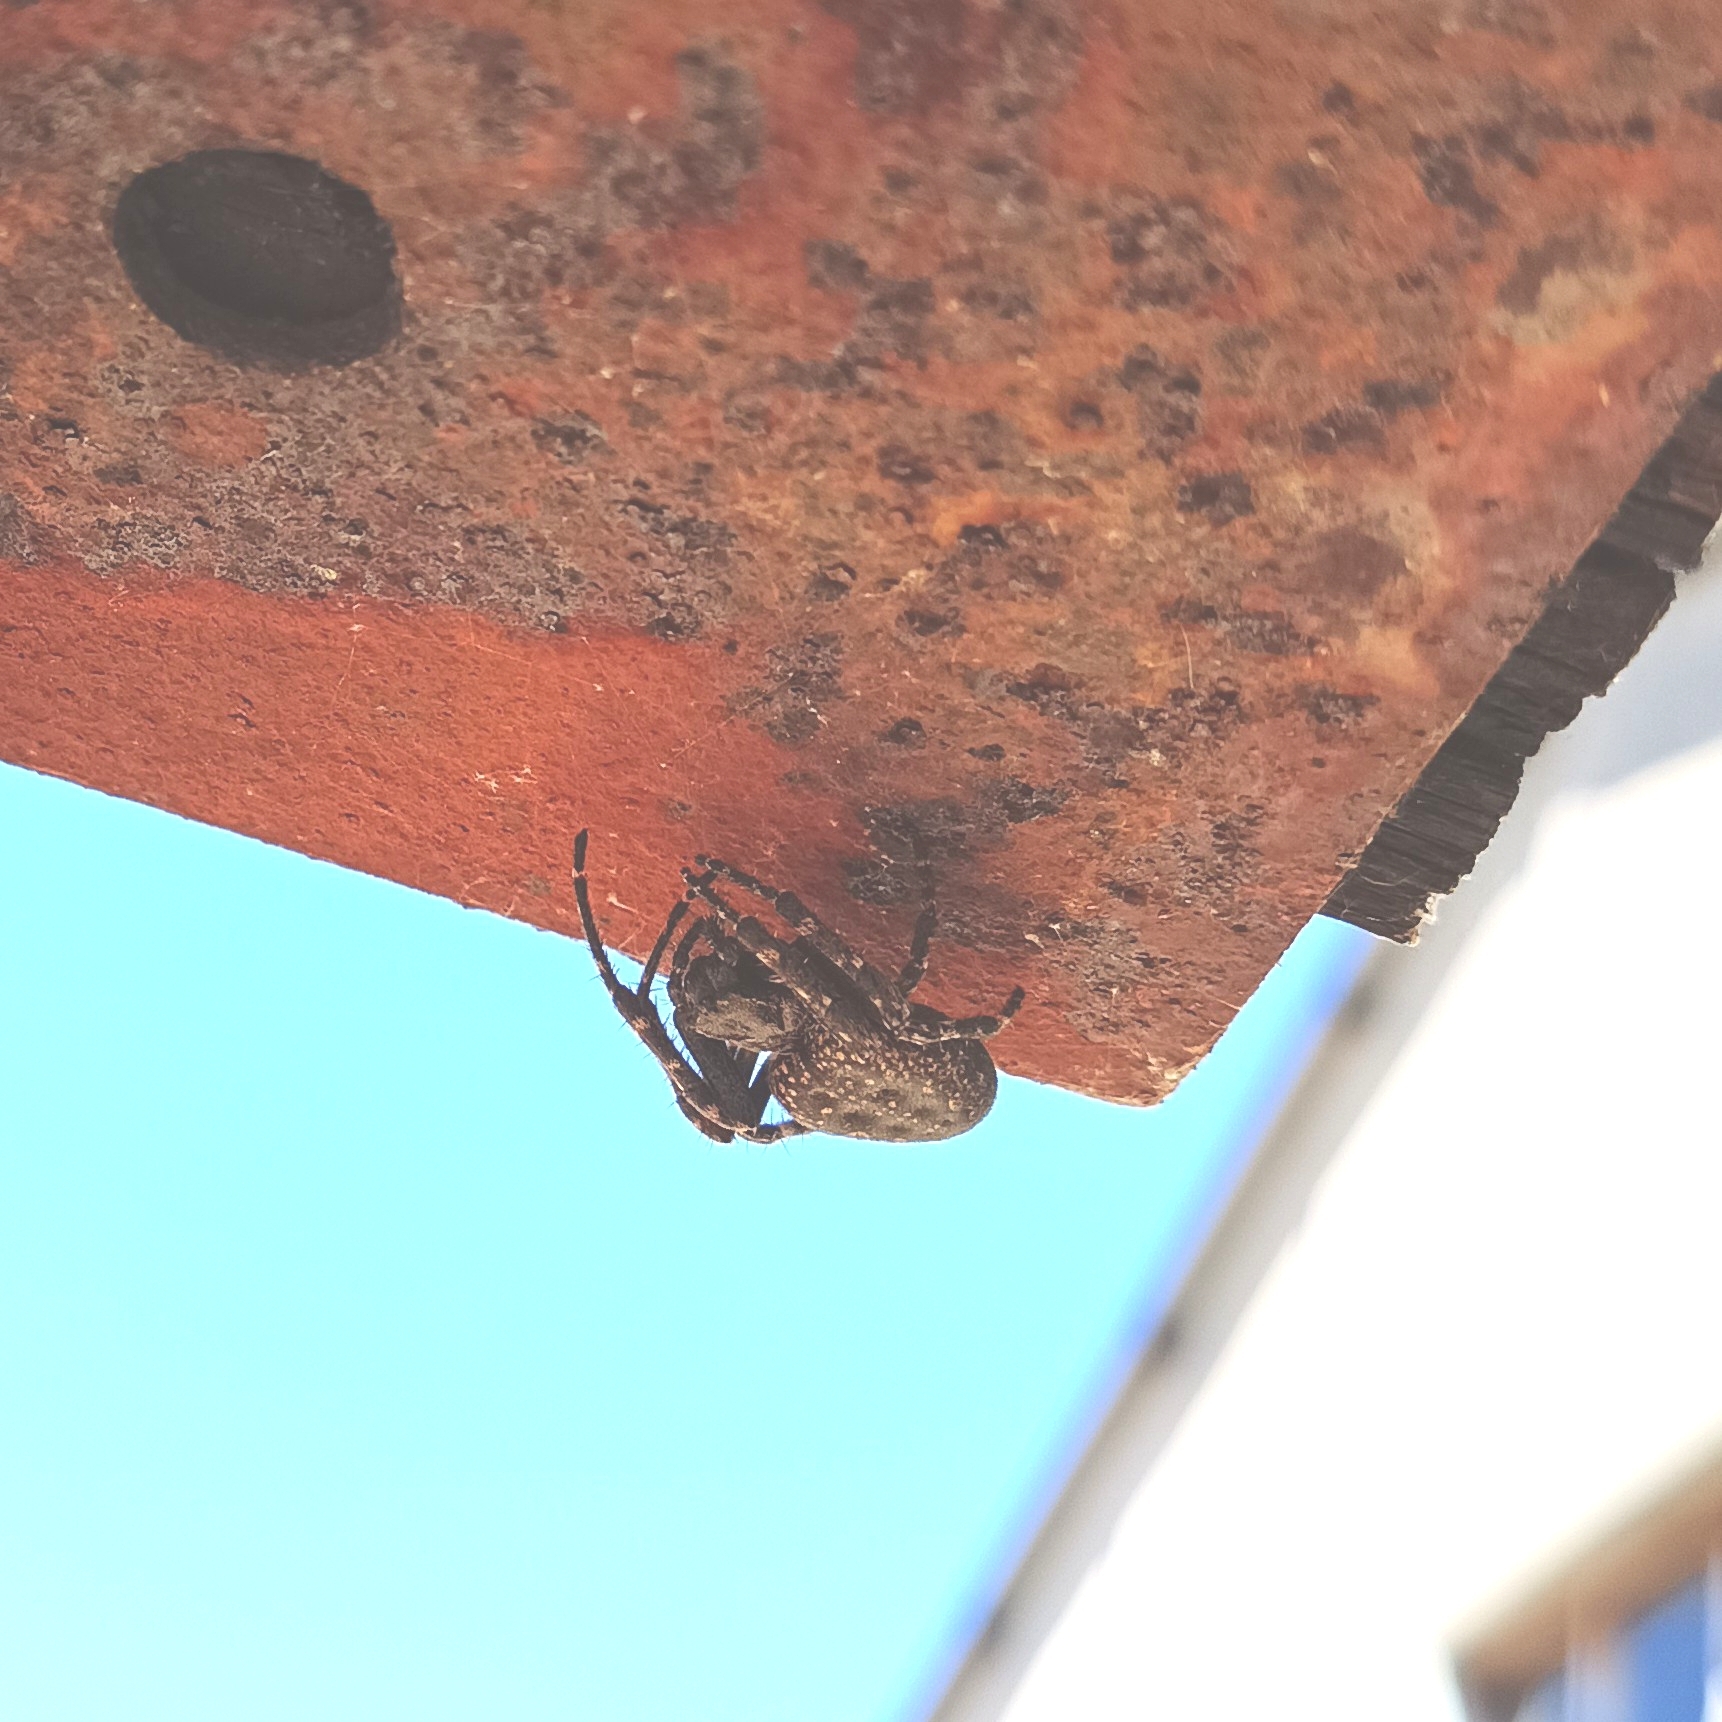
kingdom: Animalia
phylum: Arthropoda
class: Arachnida
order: Araneae
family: Araneidae
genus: Nuctenea
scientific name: Nuctenea umbratica
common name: Toad spider
